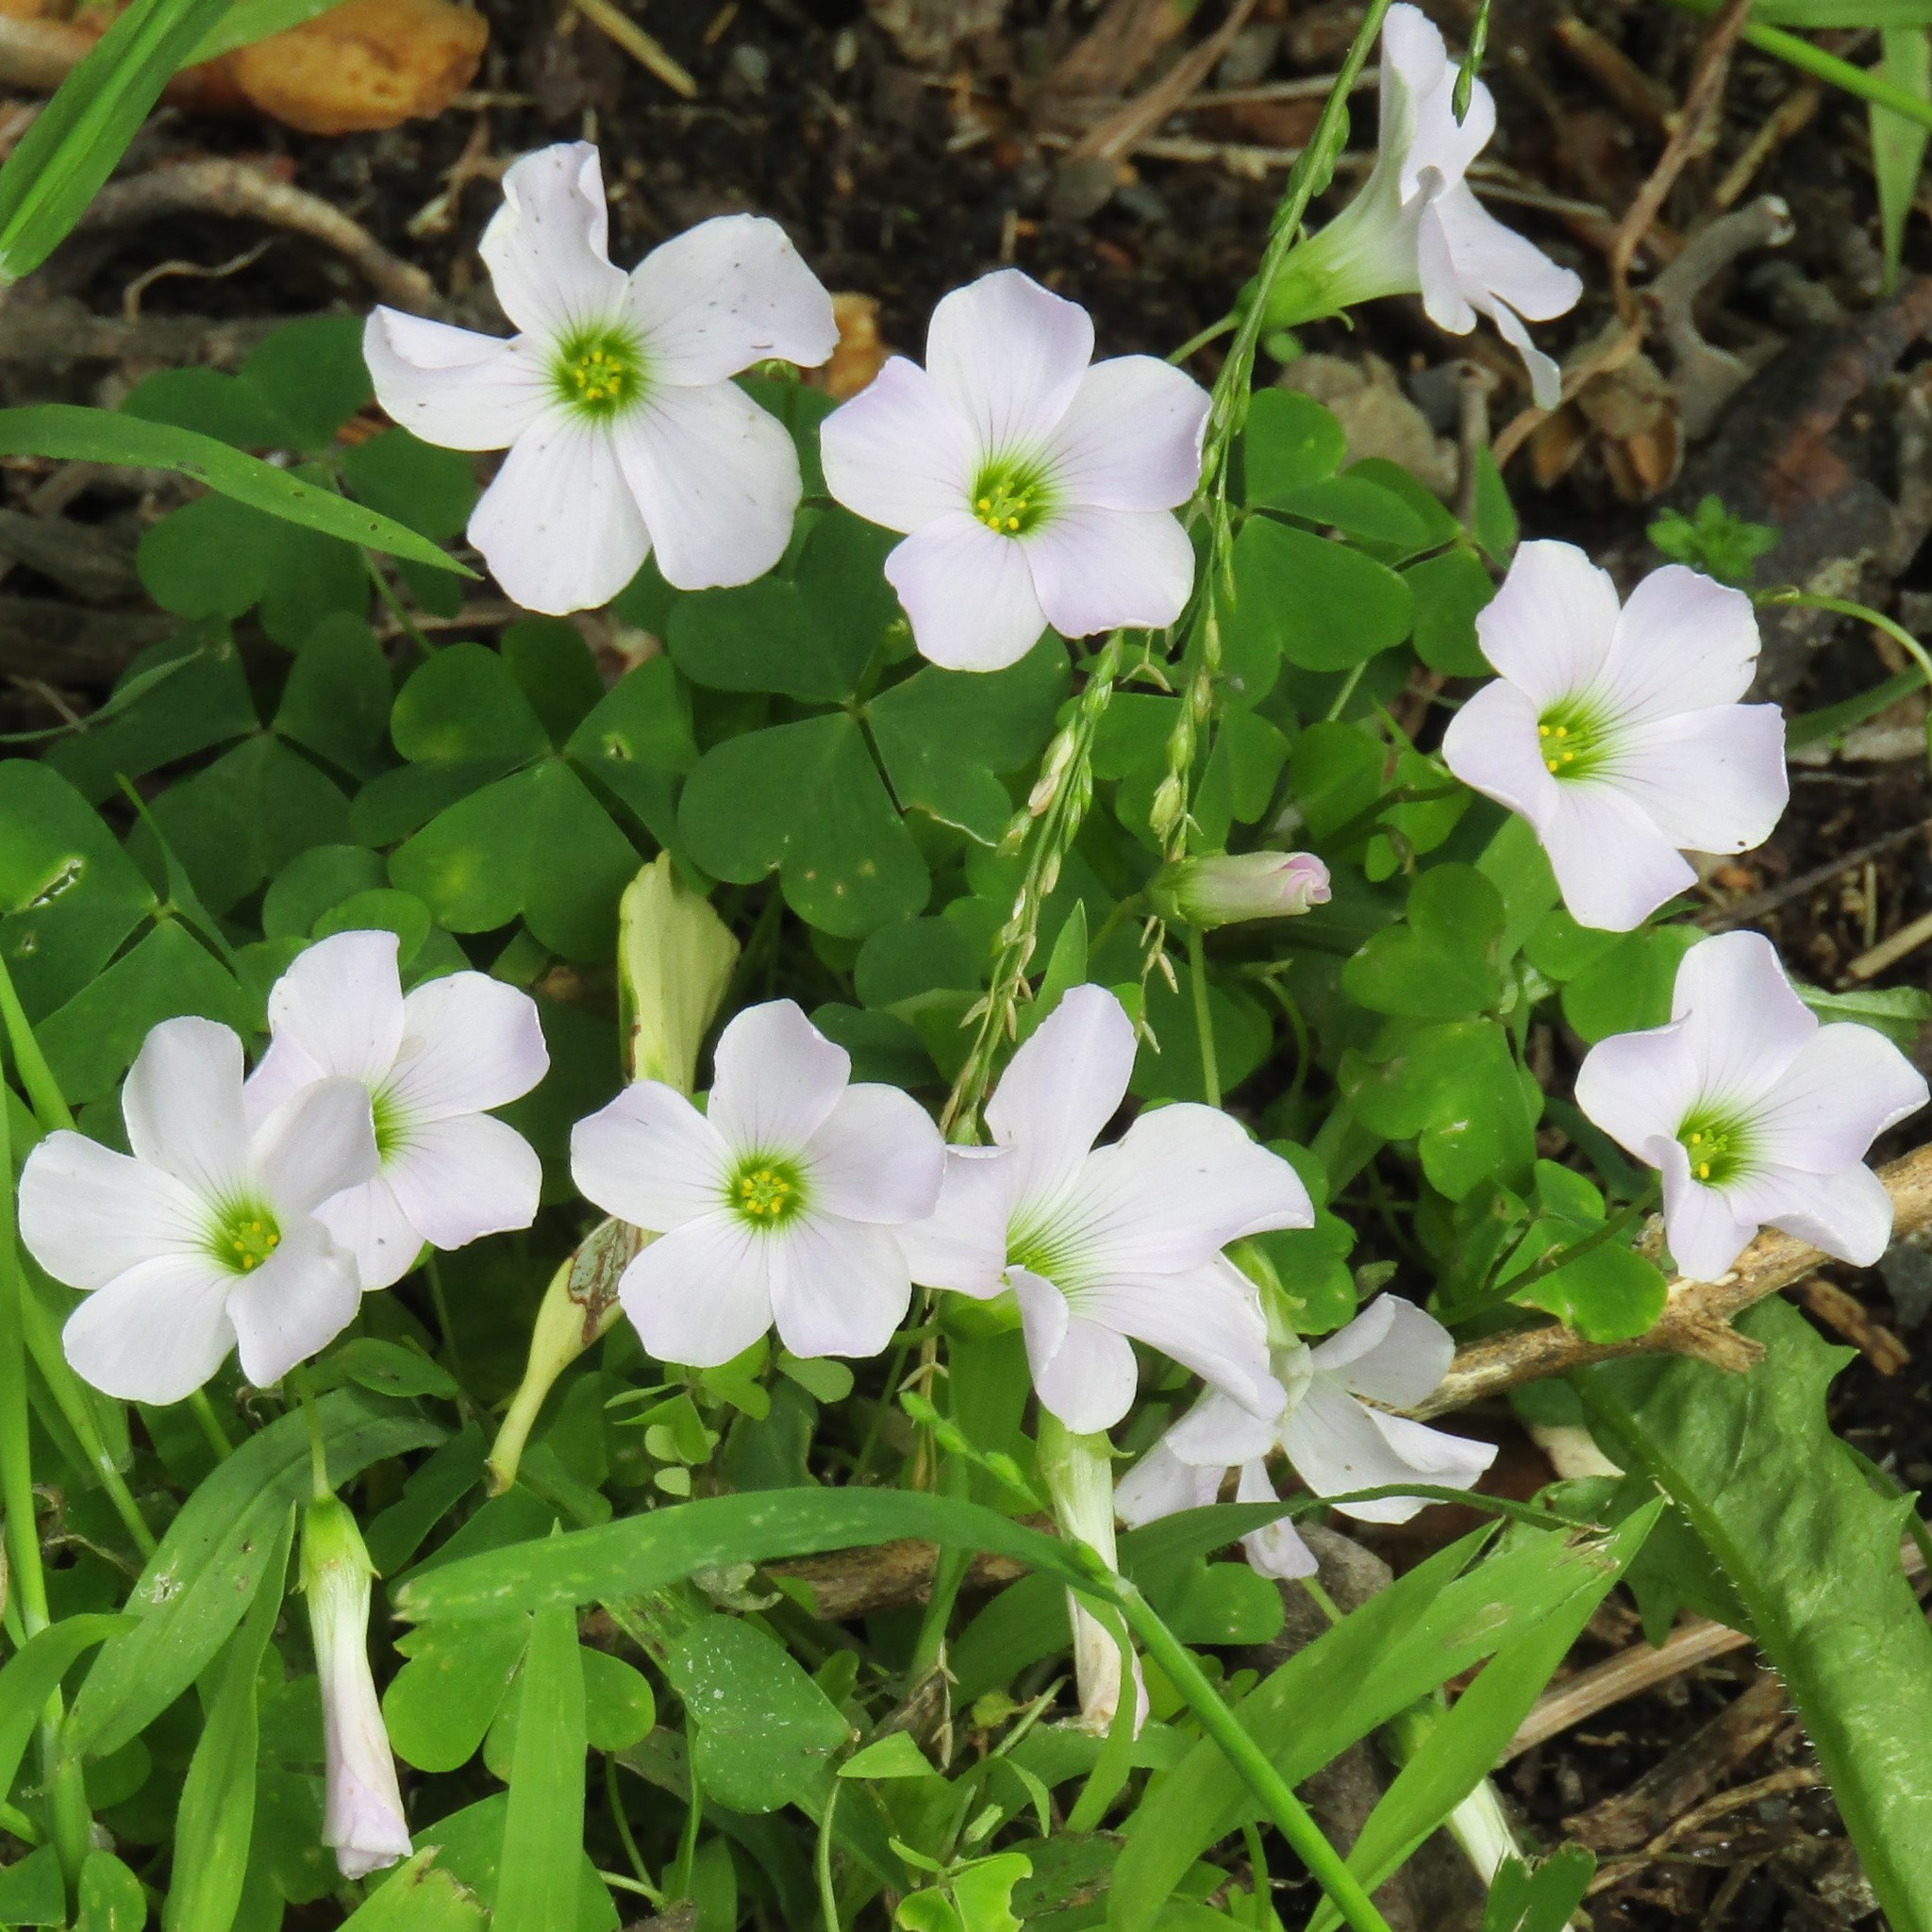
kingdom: Plantae
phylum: Tracheophyta
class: Magnoliopsida
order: Oxalidales
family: Oxalidaceae
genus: Oxalis
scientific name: Oxalis incarnata
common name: Pale pink-sorrel
